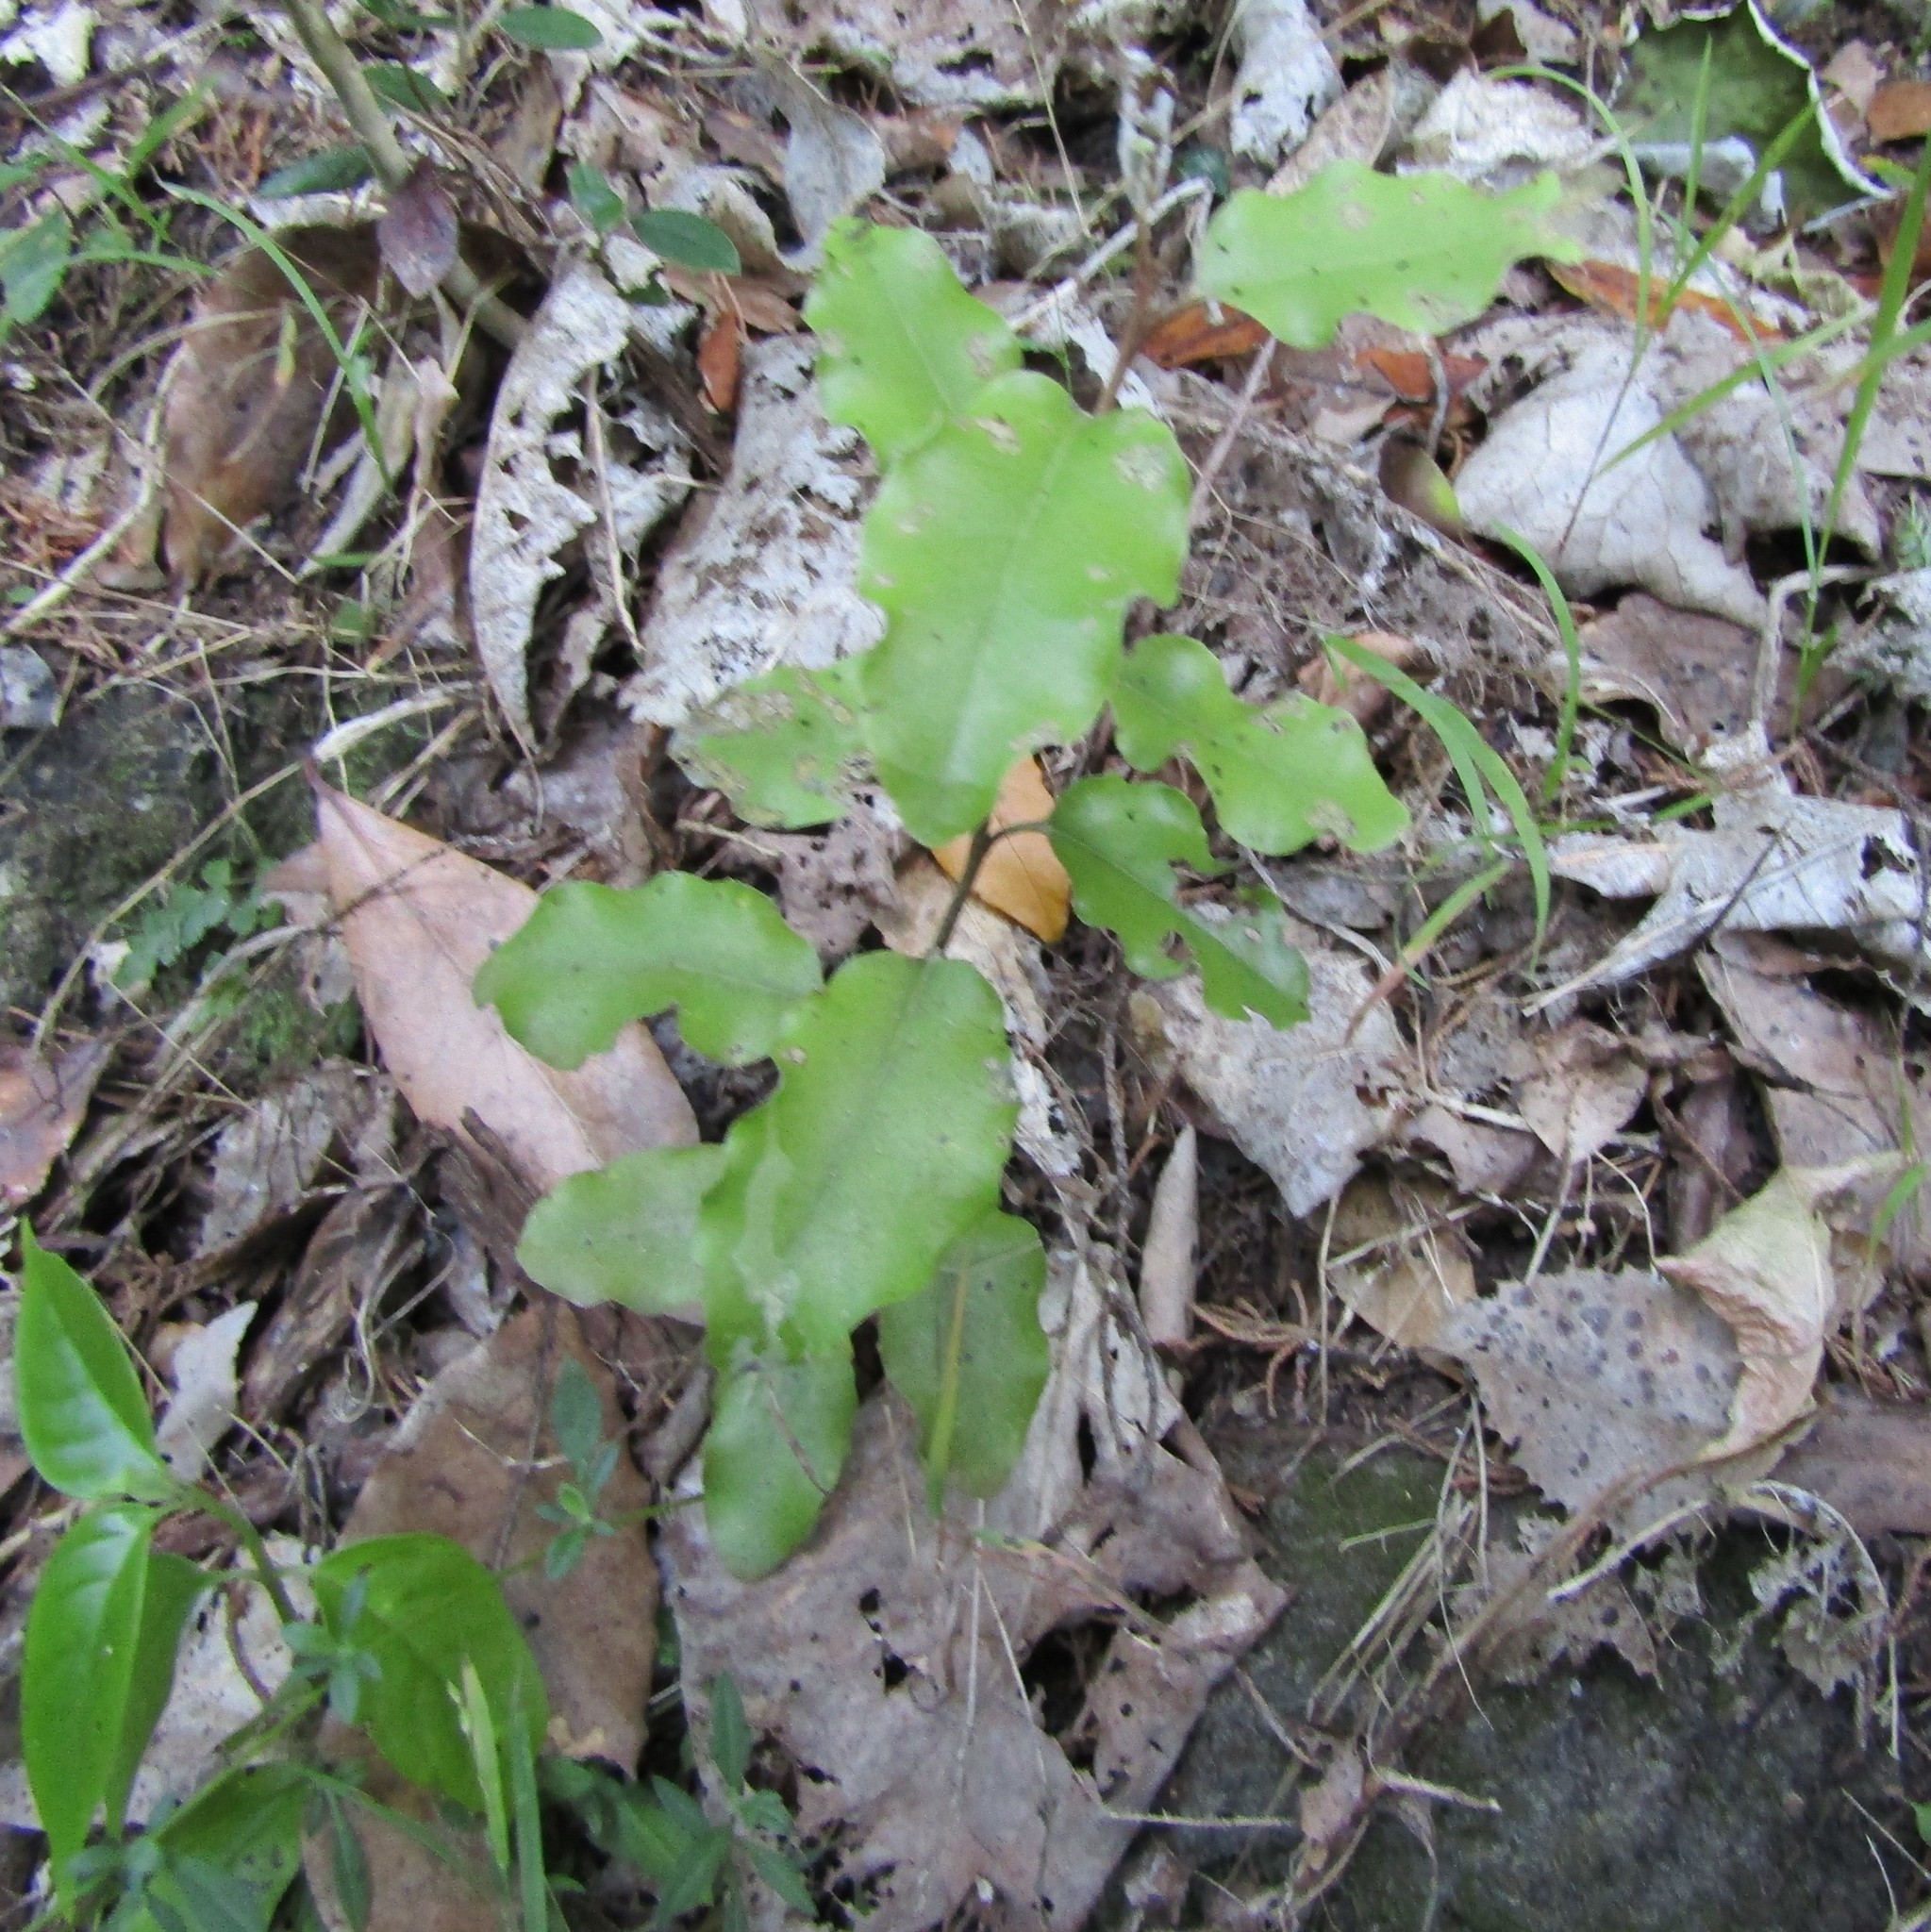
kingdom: Plantae
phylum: Tracheophyta
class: Magnoliopsida
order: Asterales
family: Asteraceae
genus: Olearia
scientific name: Olearia paniculata
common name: Akiraho
